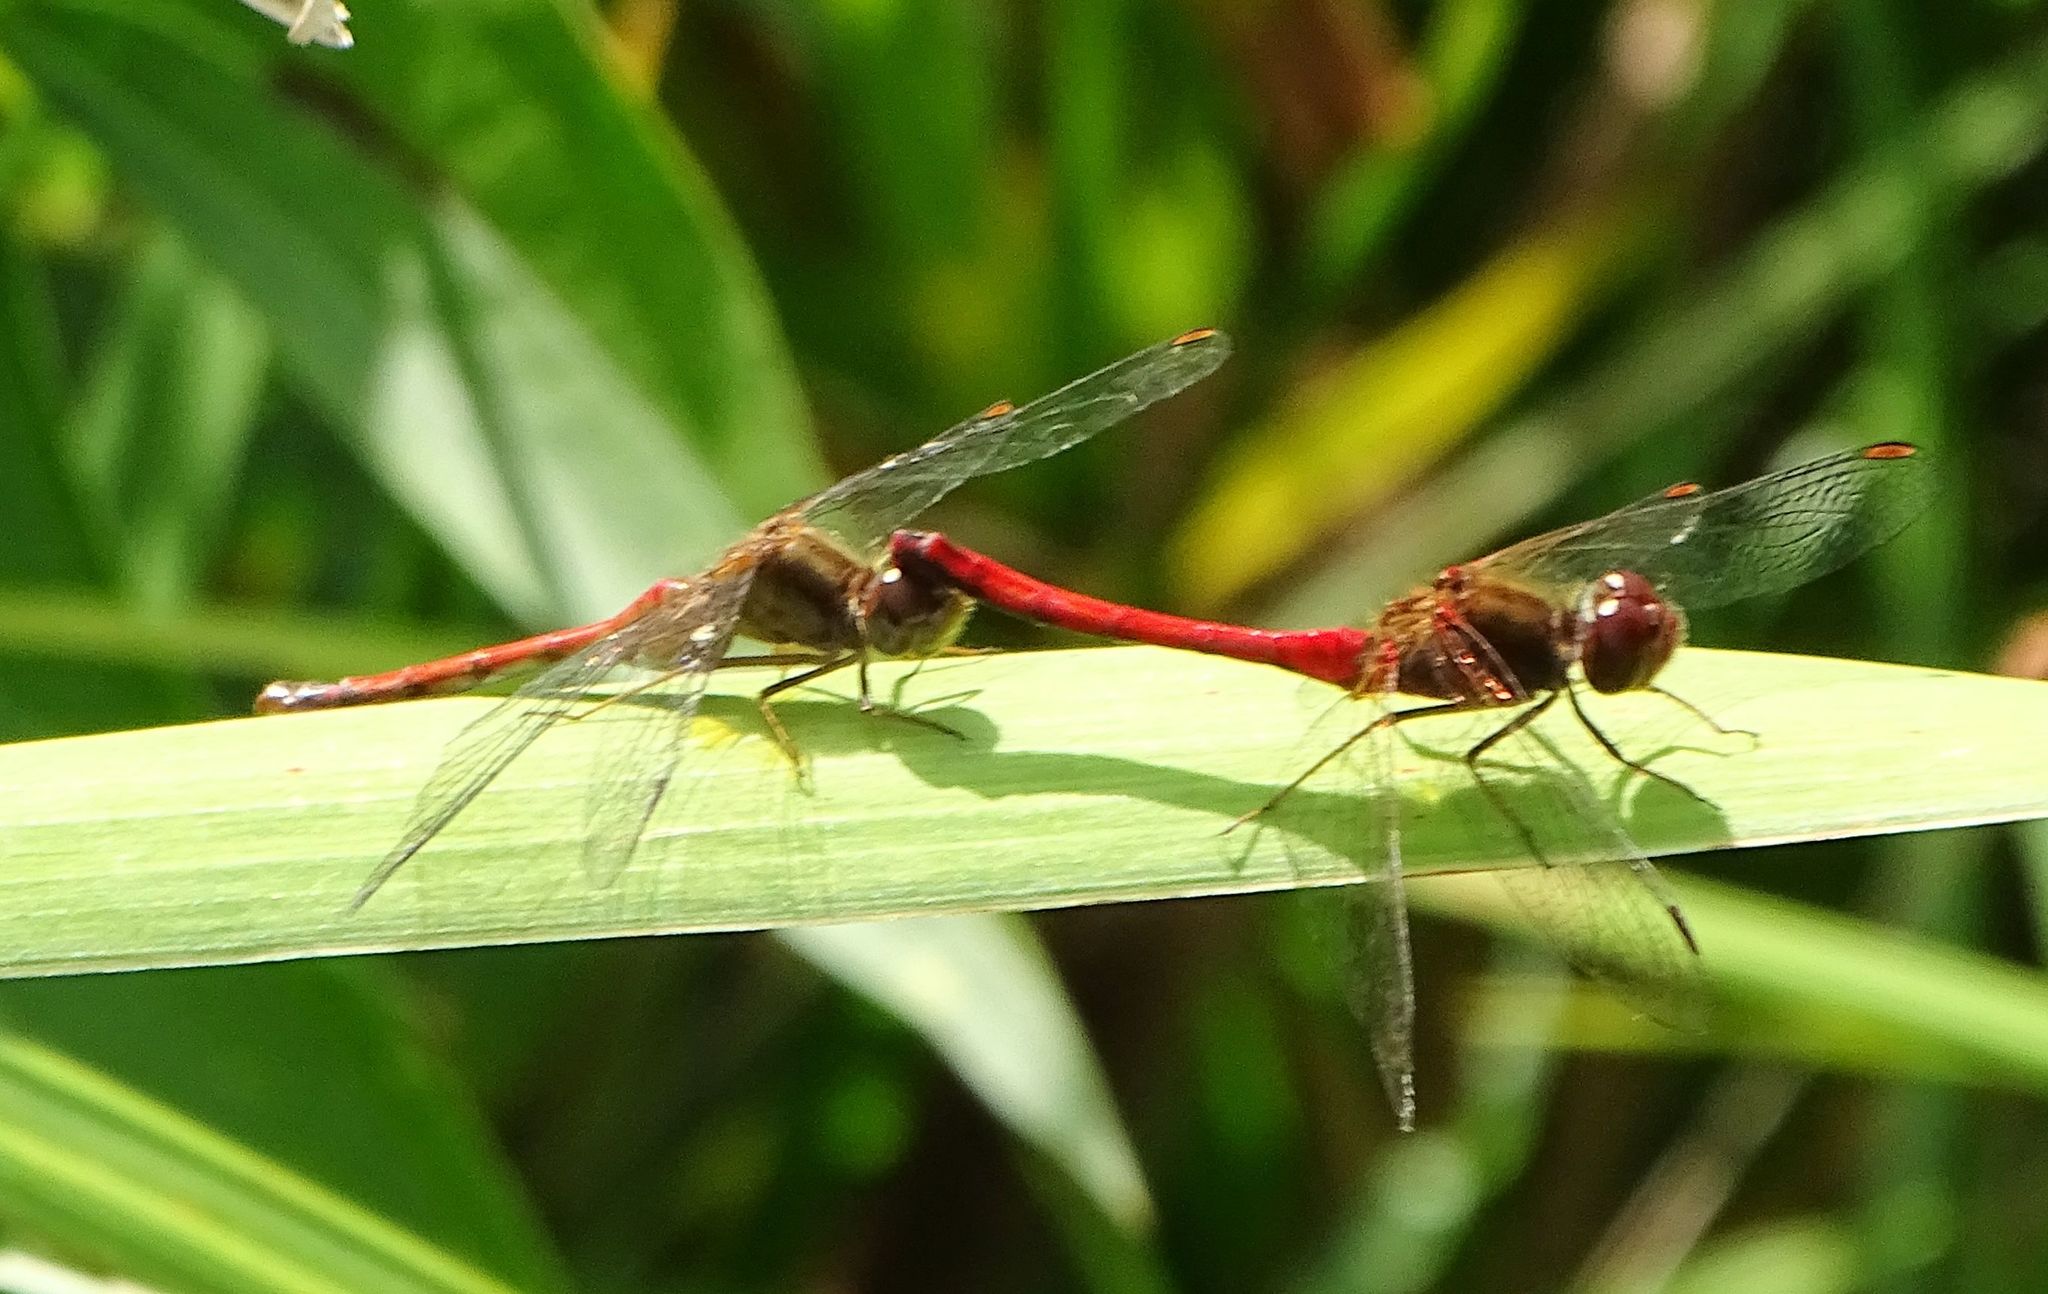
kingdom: Animalia
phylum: Arthropoda
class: Insecta
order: Odonata
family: Libellulidae
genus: Sympetrum
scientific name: Sympetrum vicinum
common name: Autumn meadowhawk
